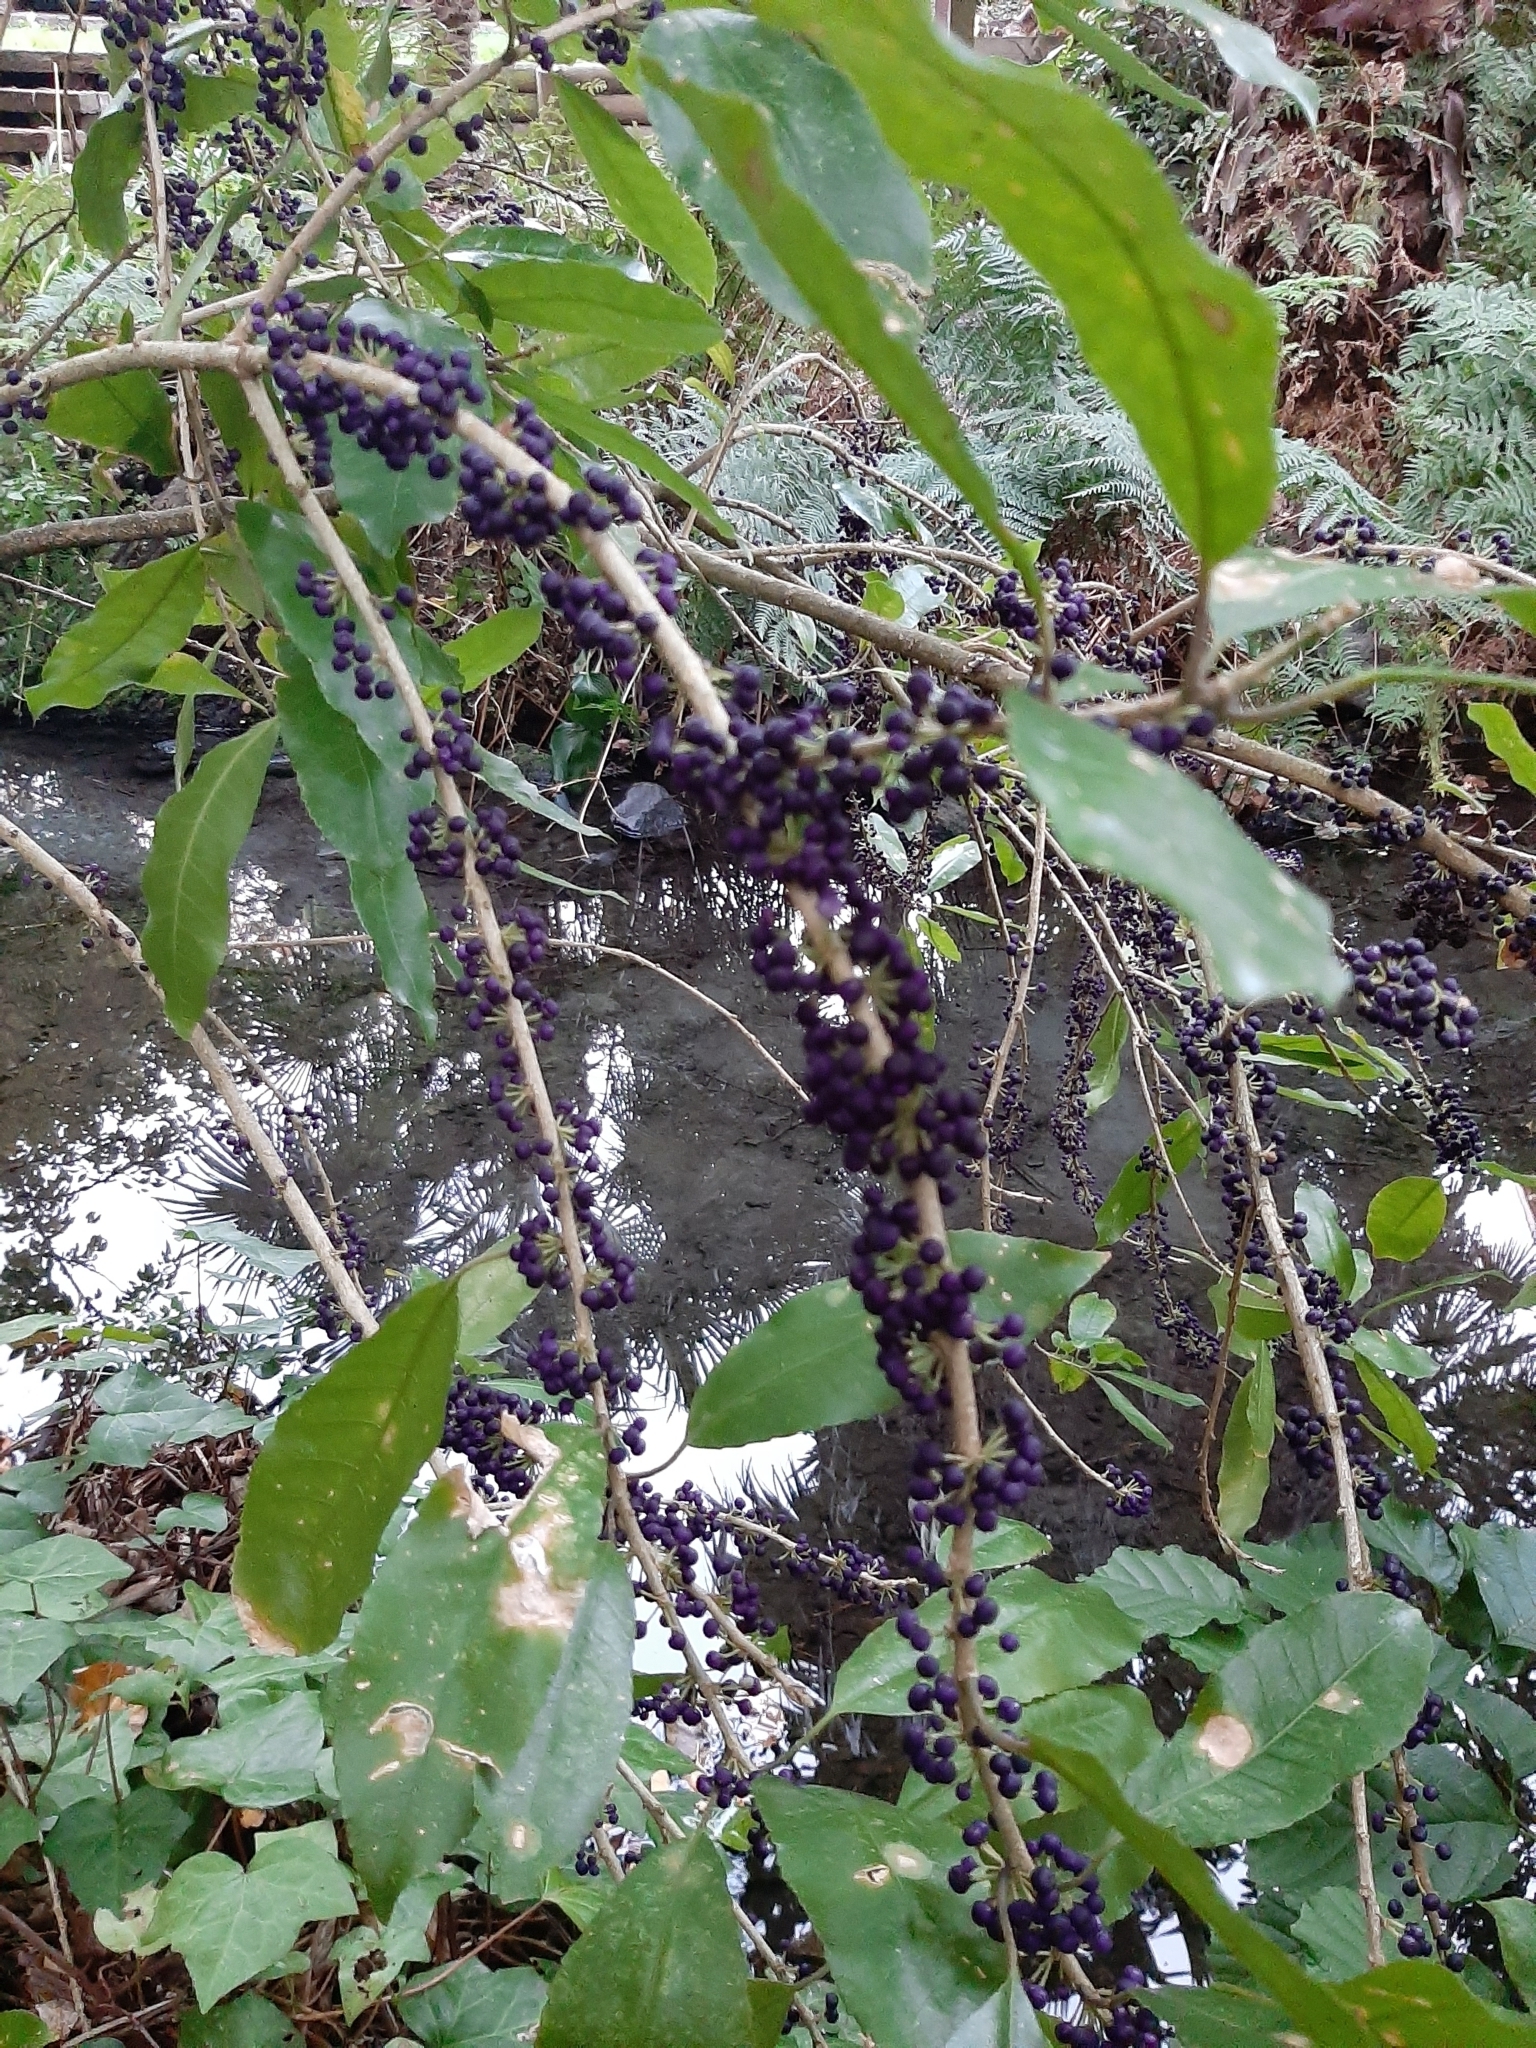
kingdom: Plantae
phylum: Tracheophyta
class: Magnoliopsida
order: Malpighiales
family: Violaceae
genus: Melicytus
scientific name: Melicytus ramiflorus
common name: Mahoe
